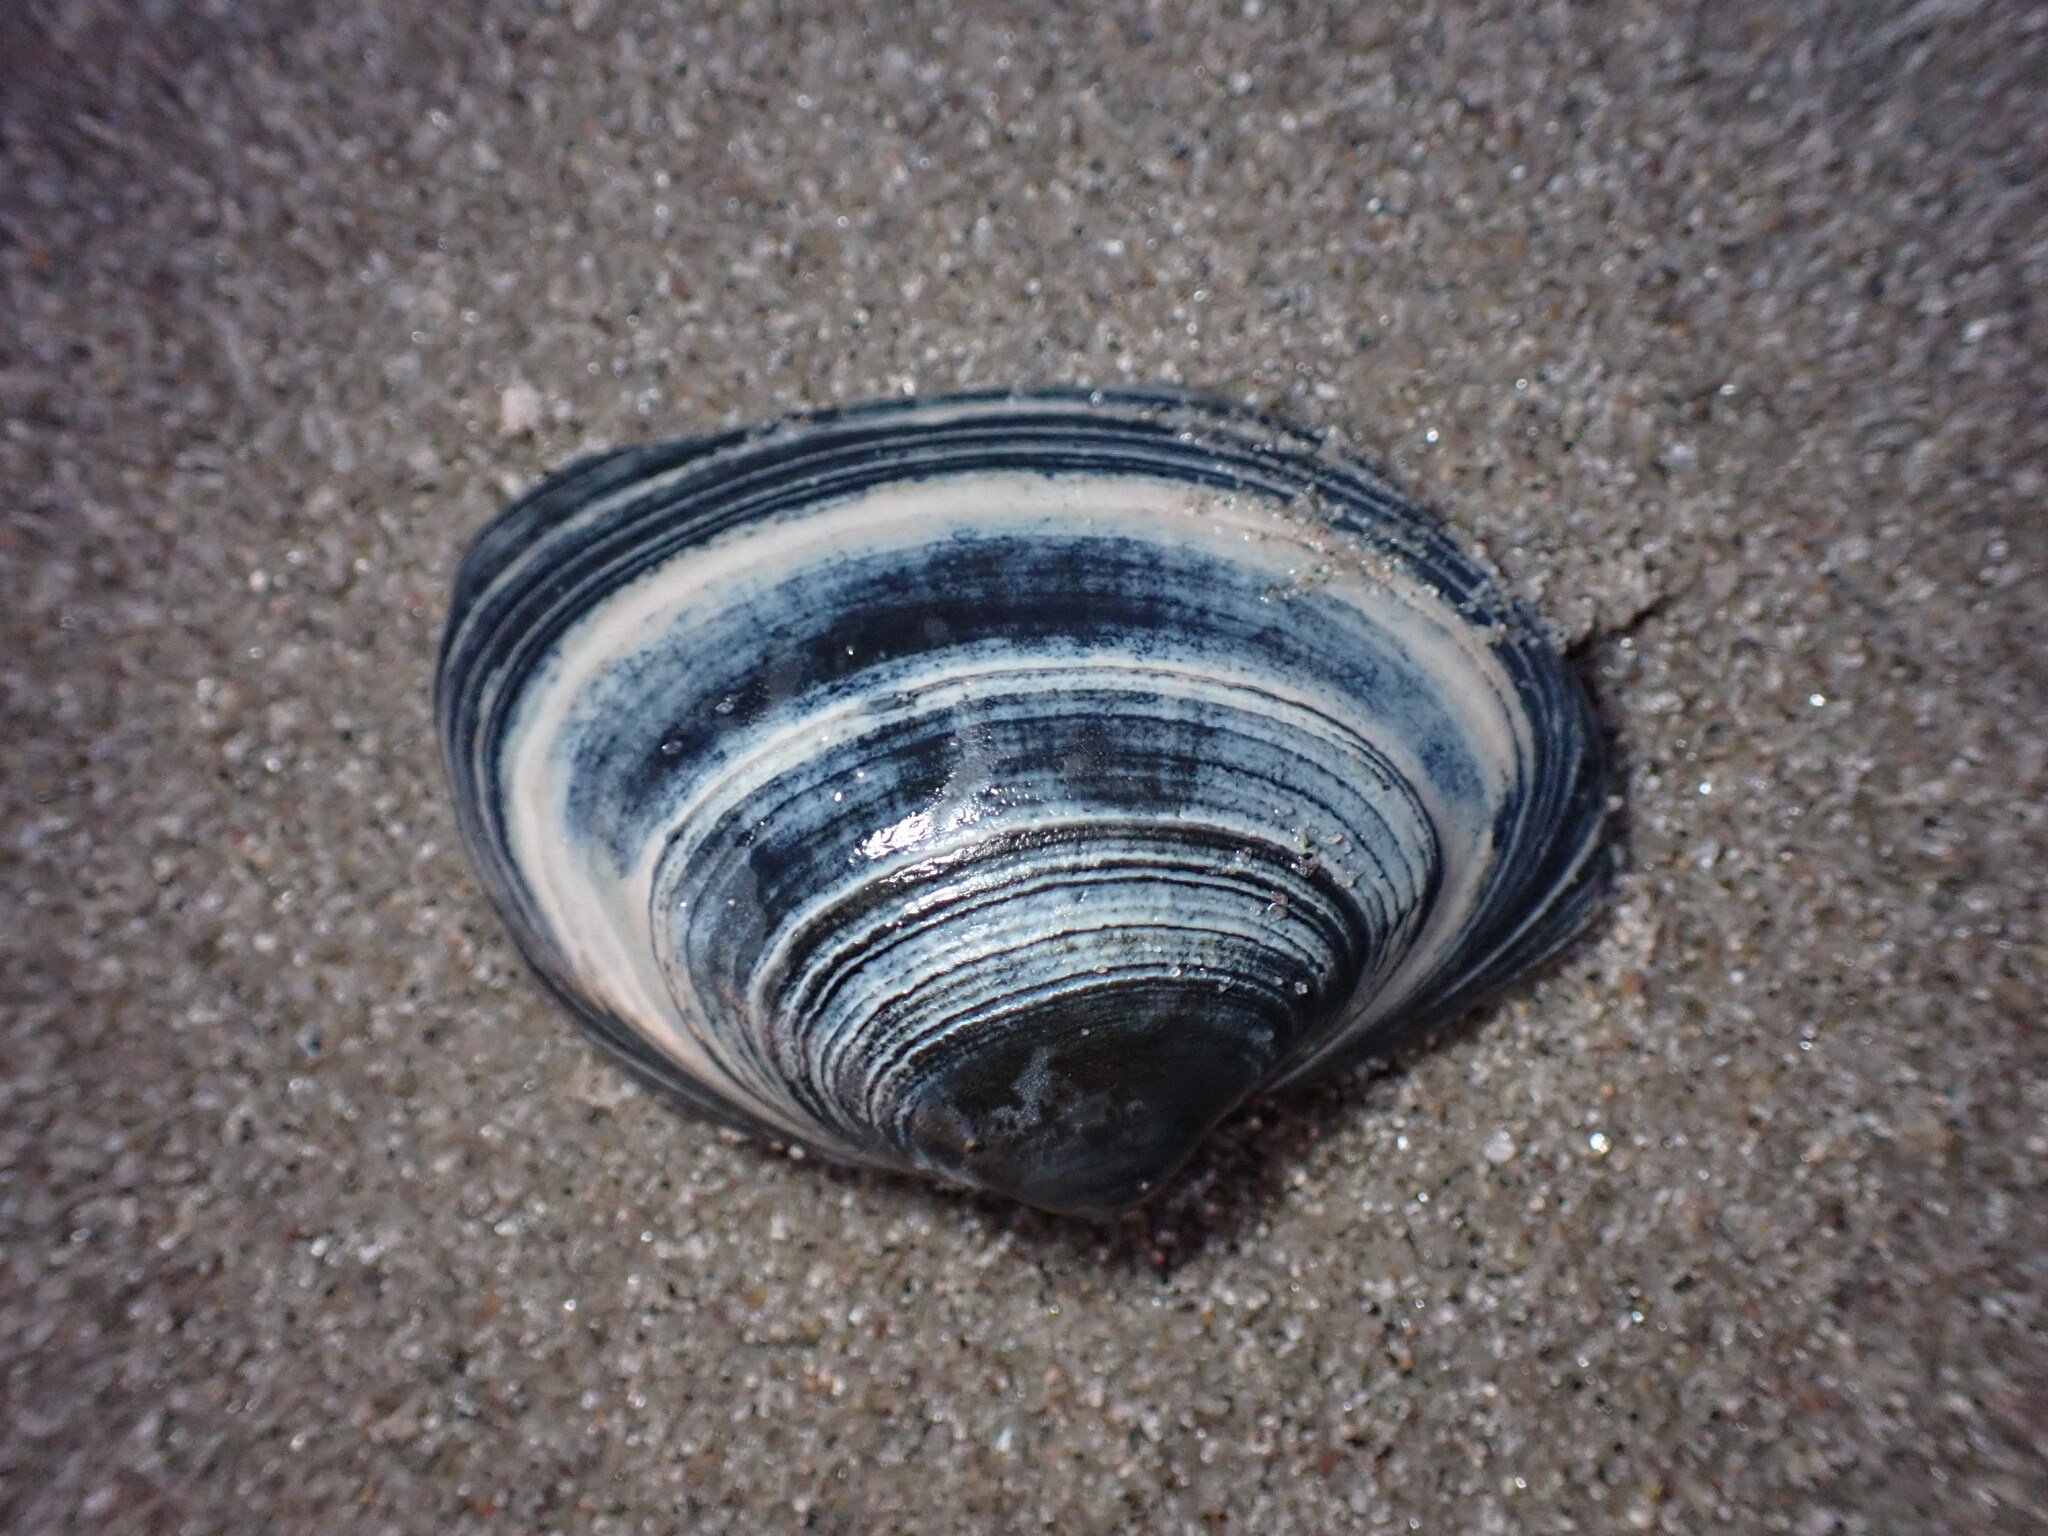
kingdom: Animalia
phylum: Mollusca
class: Bivalvia
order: Venerida
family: Mactridae
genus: Spisula
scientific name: Spisula solidissima
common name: Atlantic surf clam
